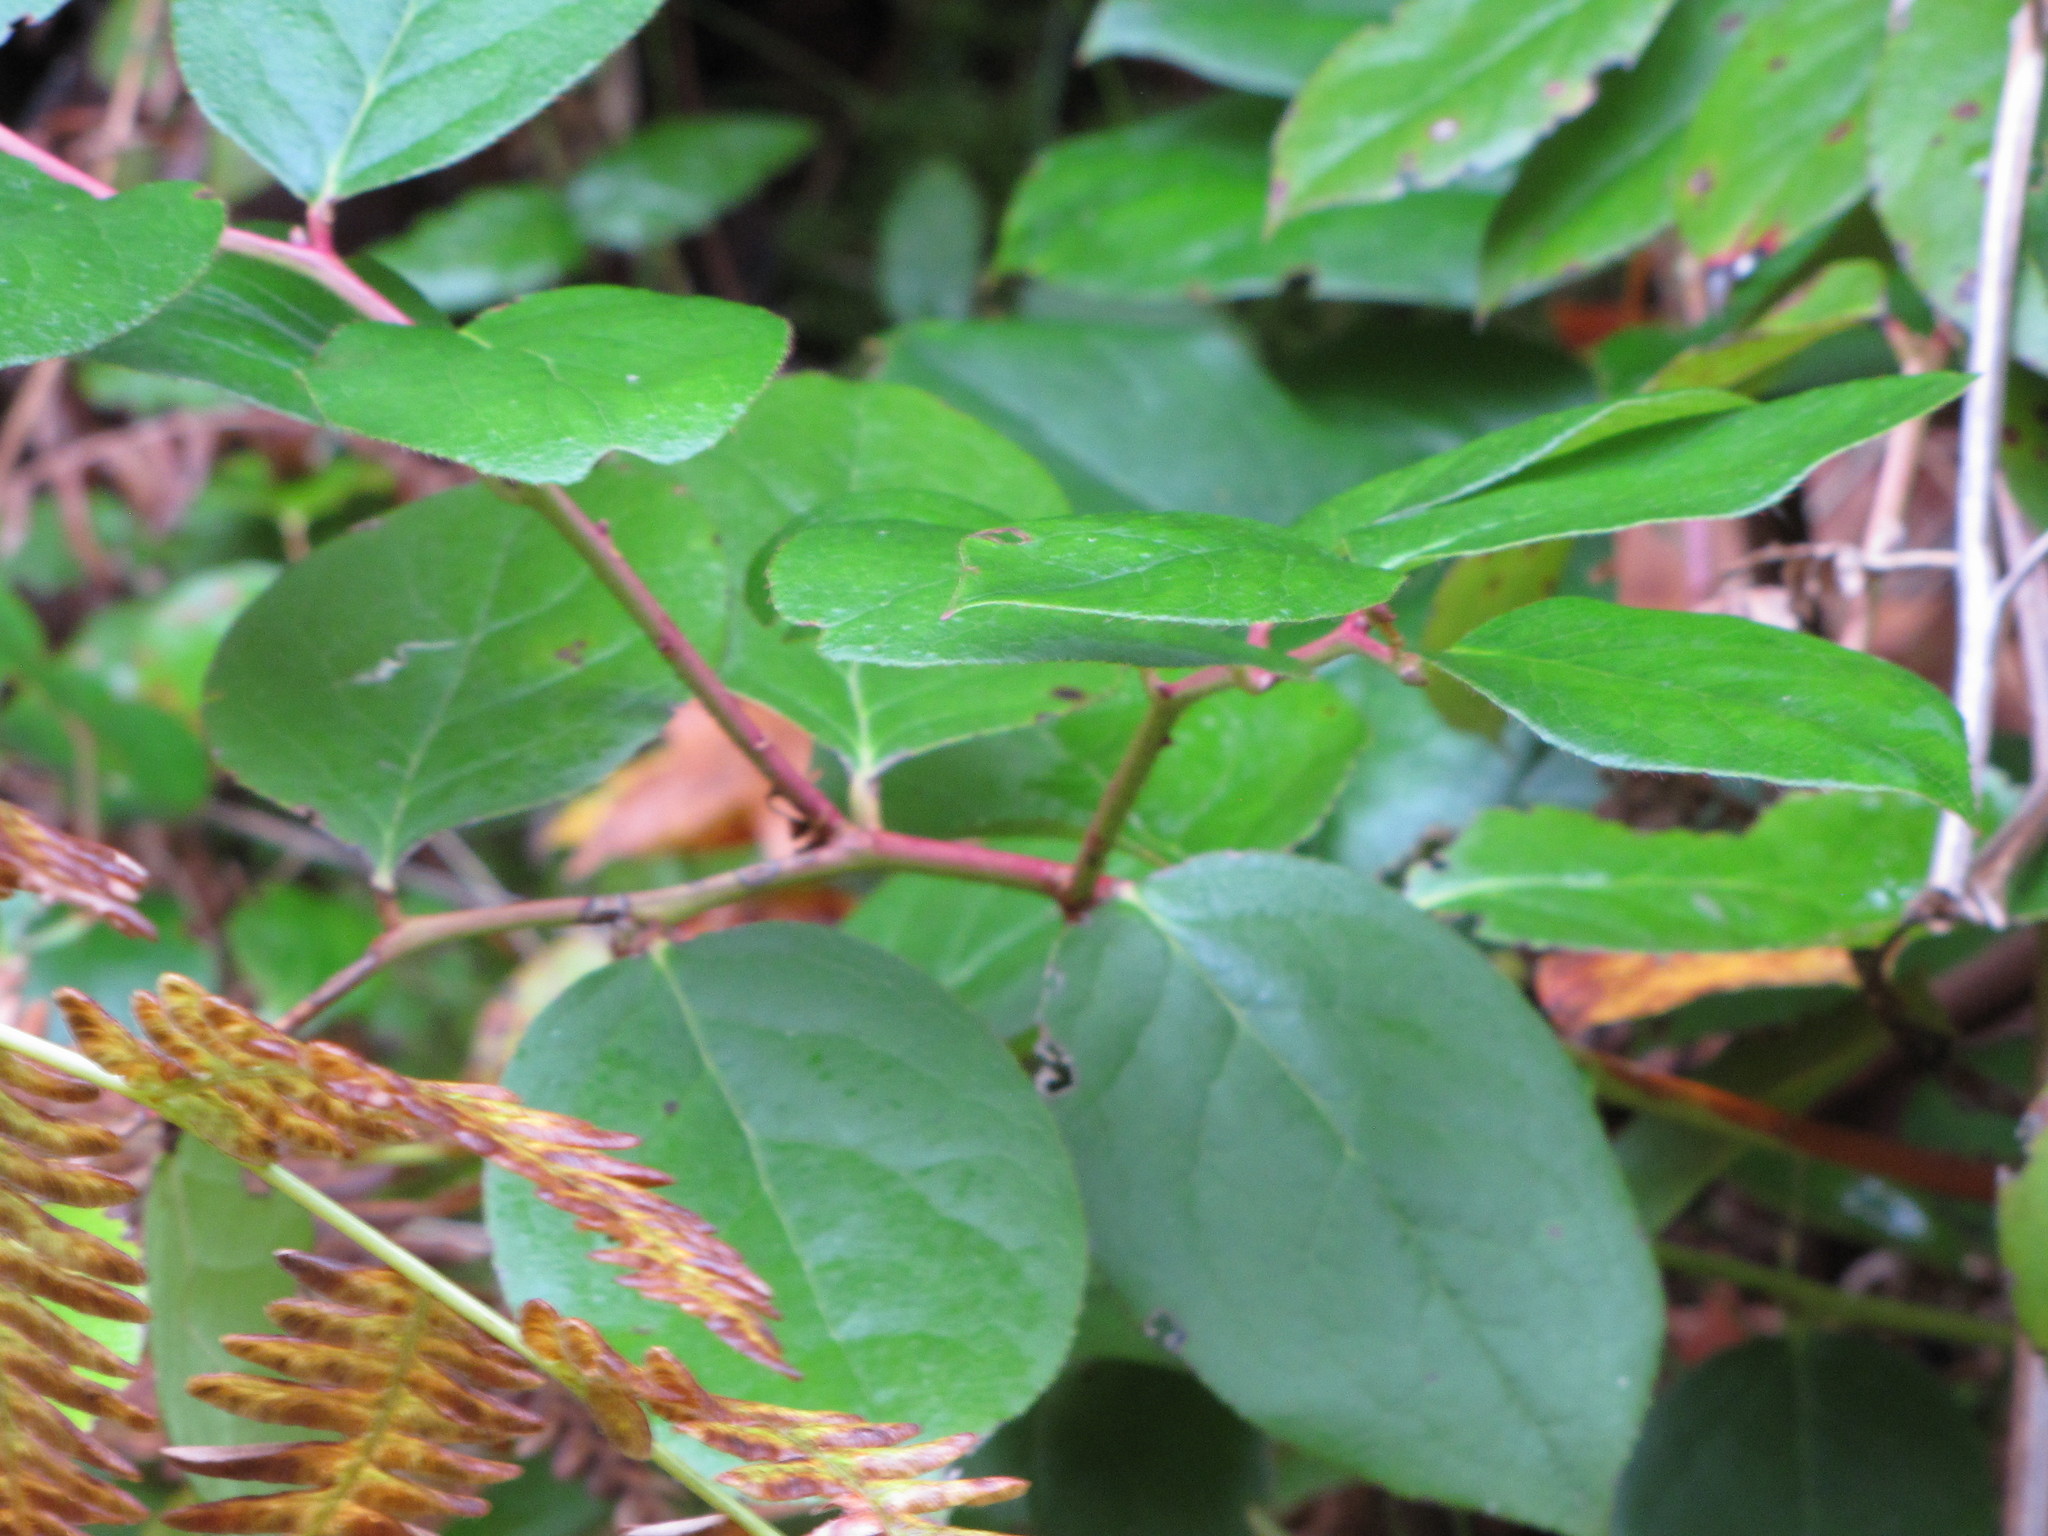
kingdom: Plantae
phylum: Tracheophyta
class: Magnoliopsida
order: Ericales
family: Ericaceae
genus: Gaultheria
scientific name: Gaultheria shallon
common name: Shallon
